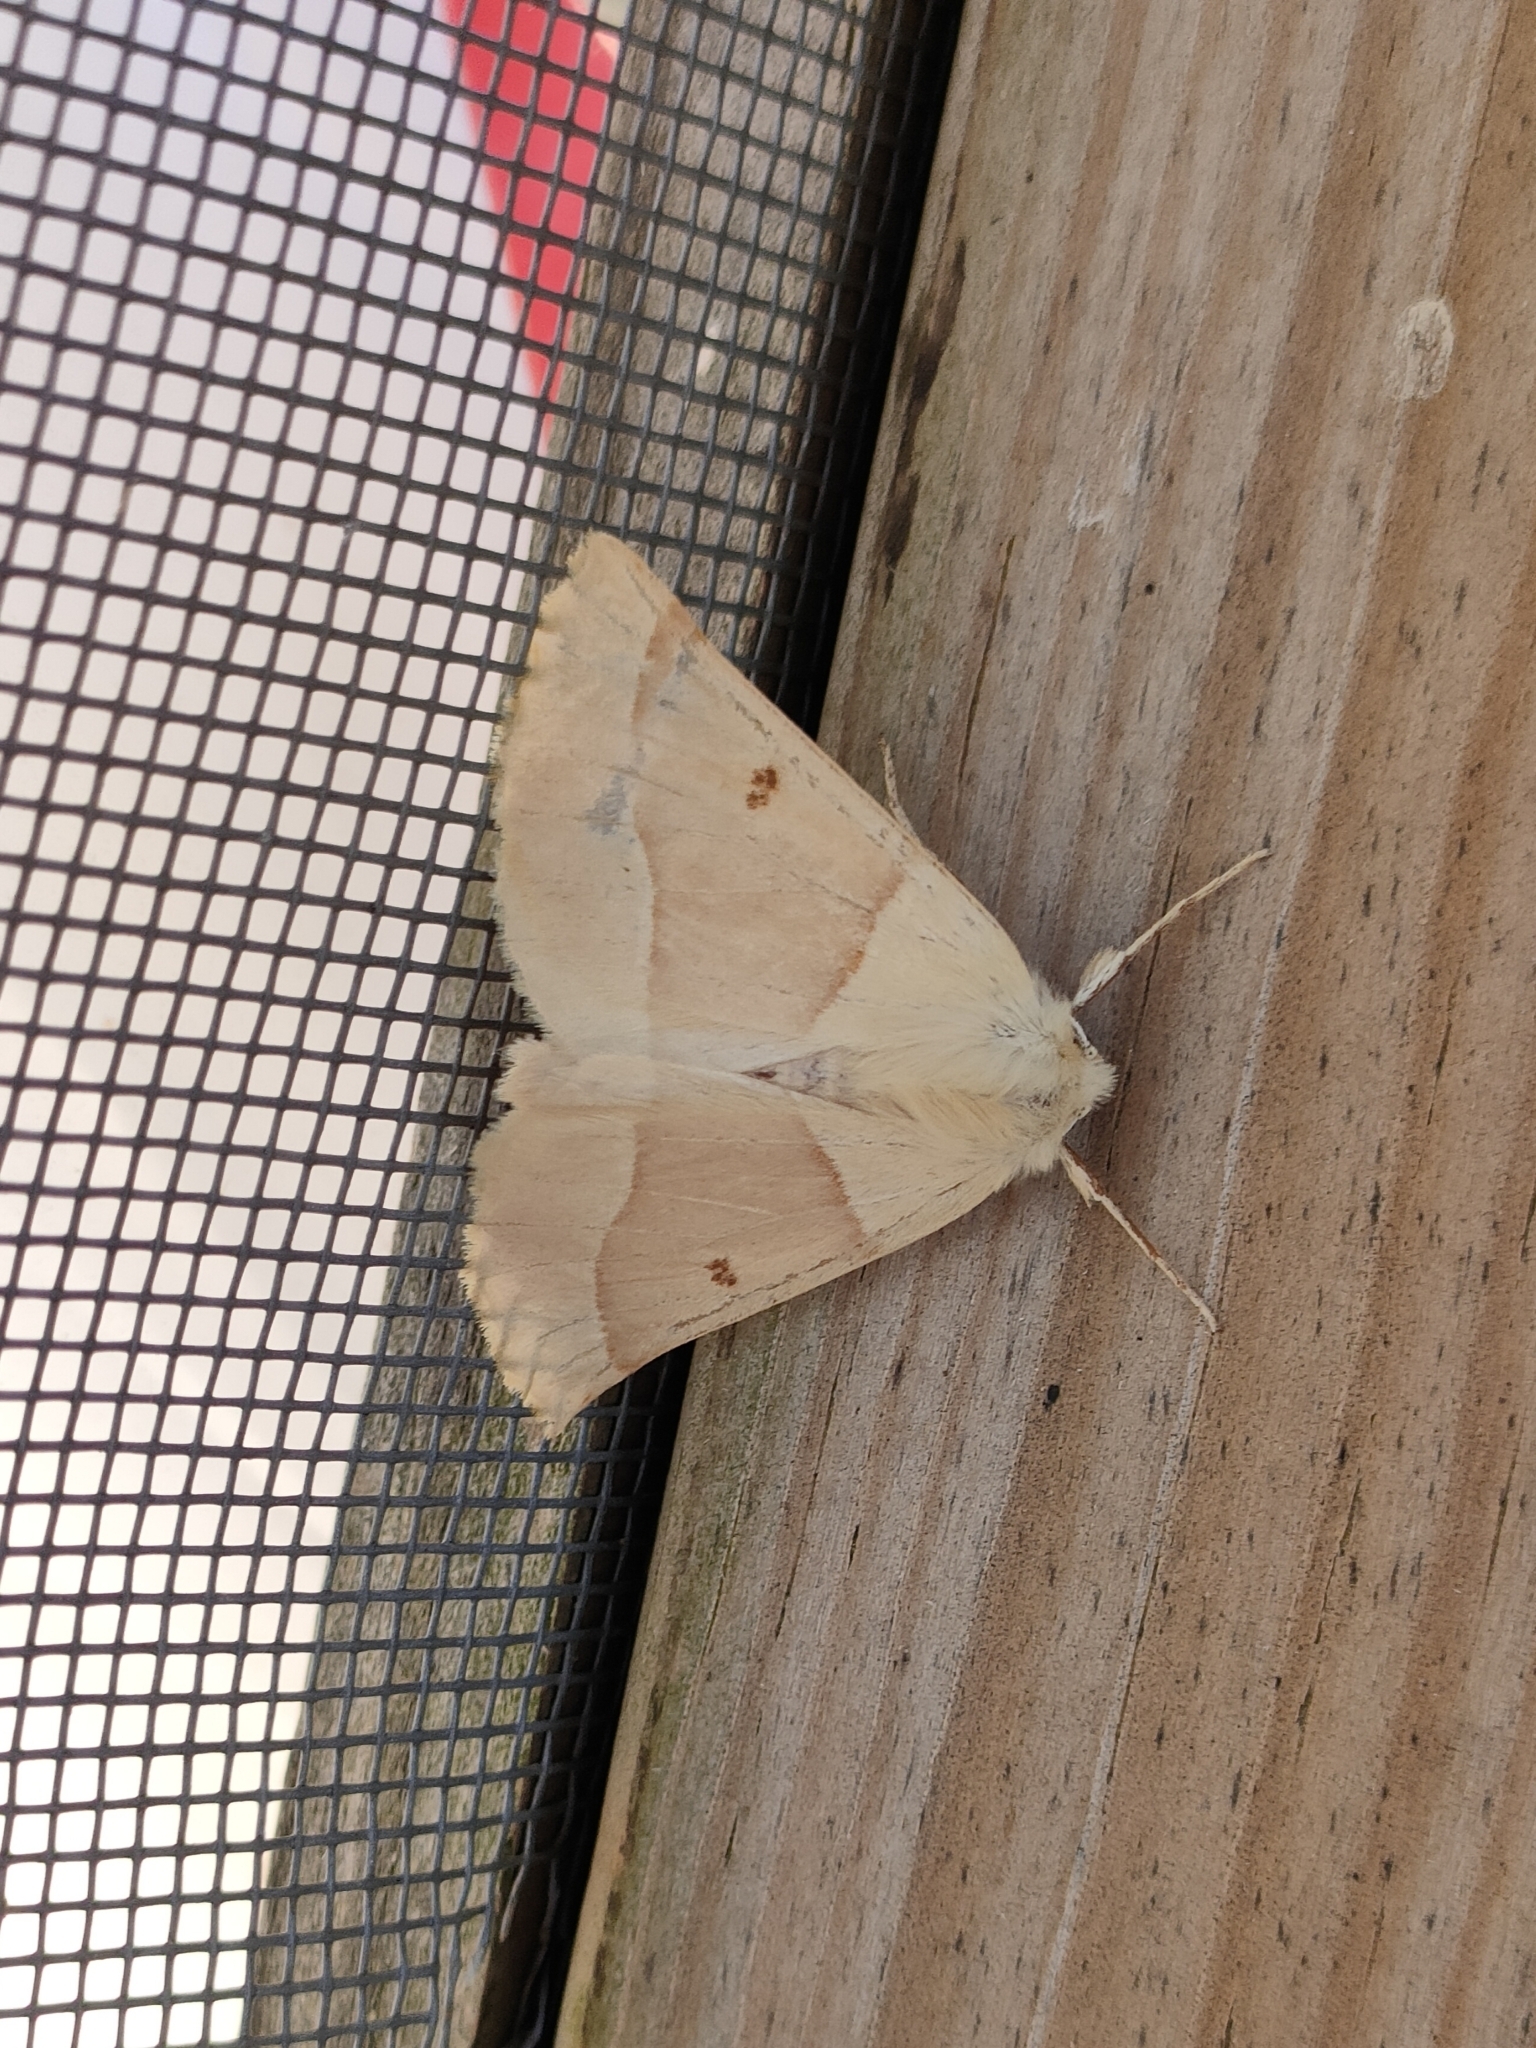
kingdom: Animalia
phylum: Arthropoda
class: Insecta
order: Lepidoptera
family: Geometridae
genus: Crocallis
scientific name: Crocallis elinguaria
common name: Scalloped oak
